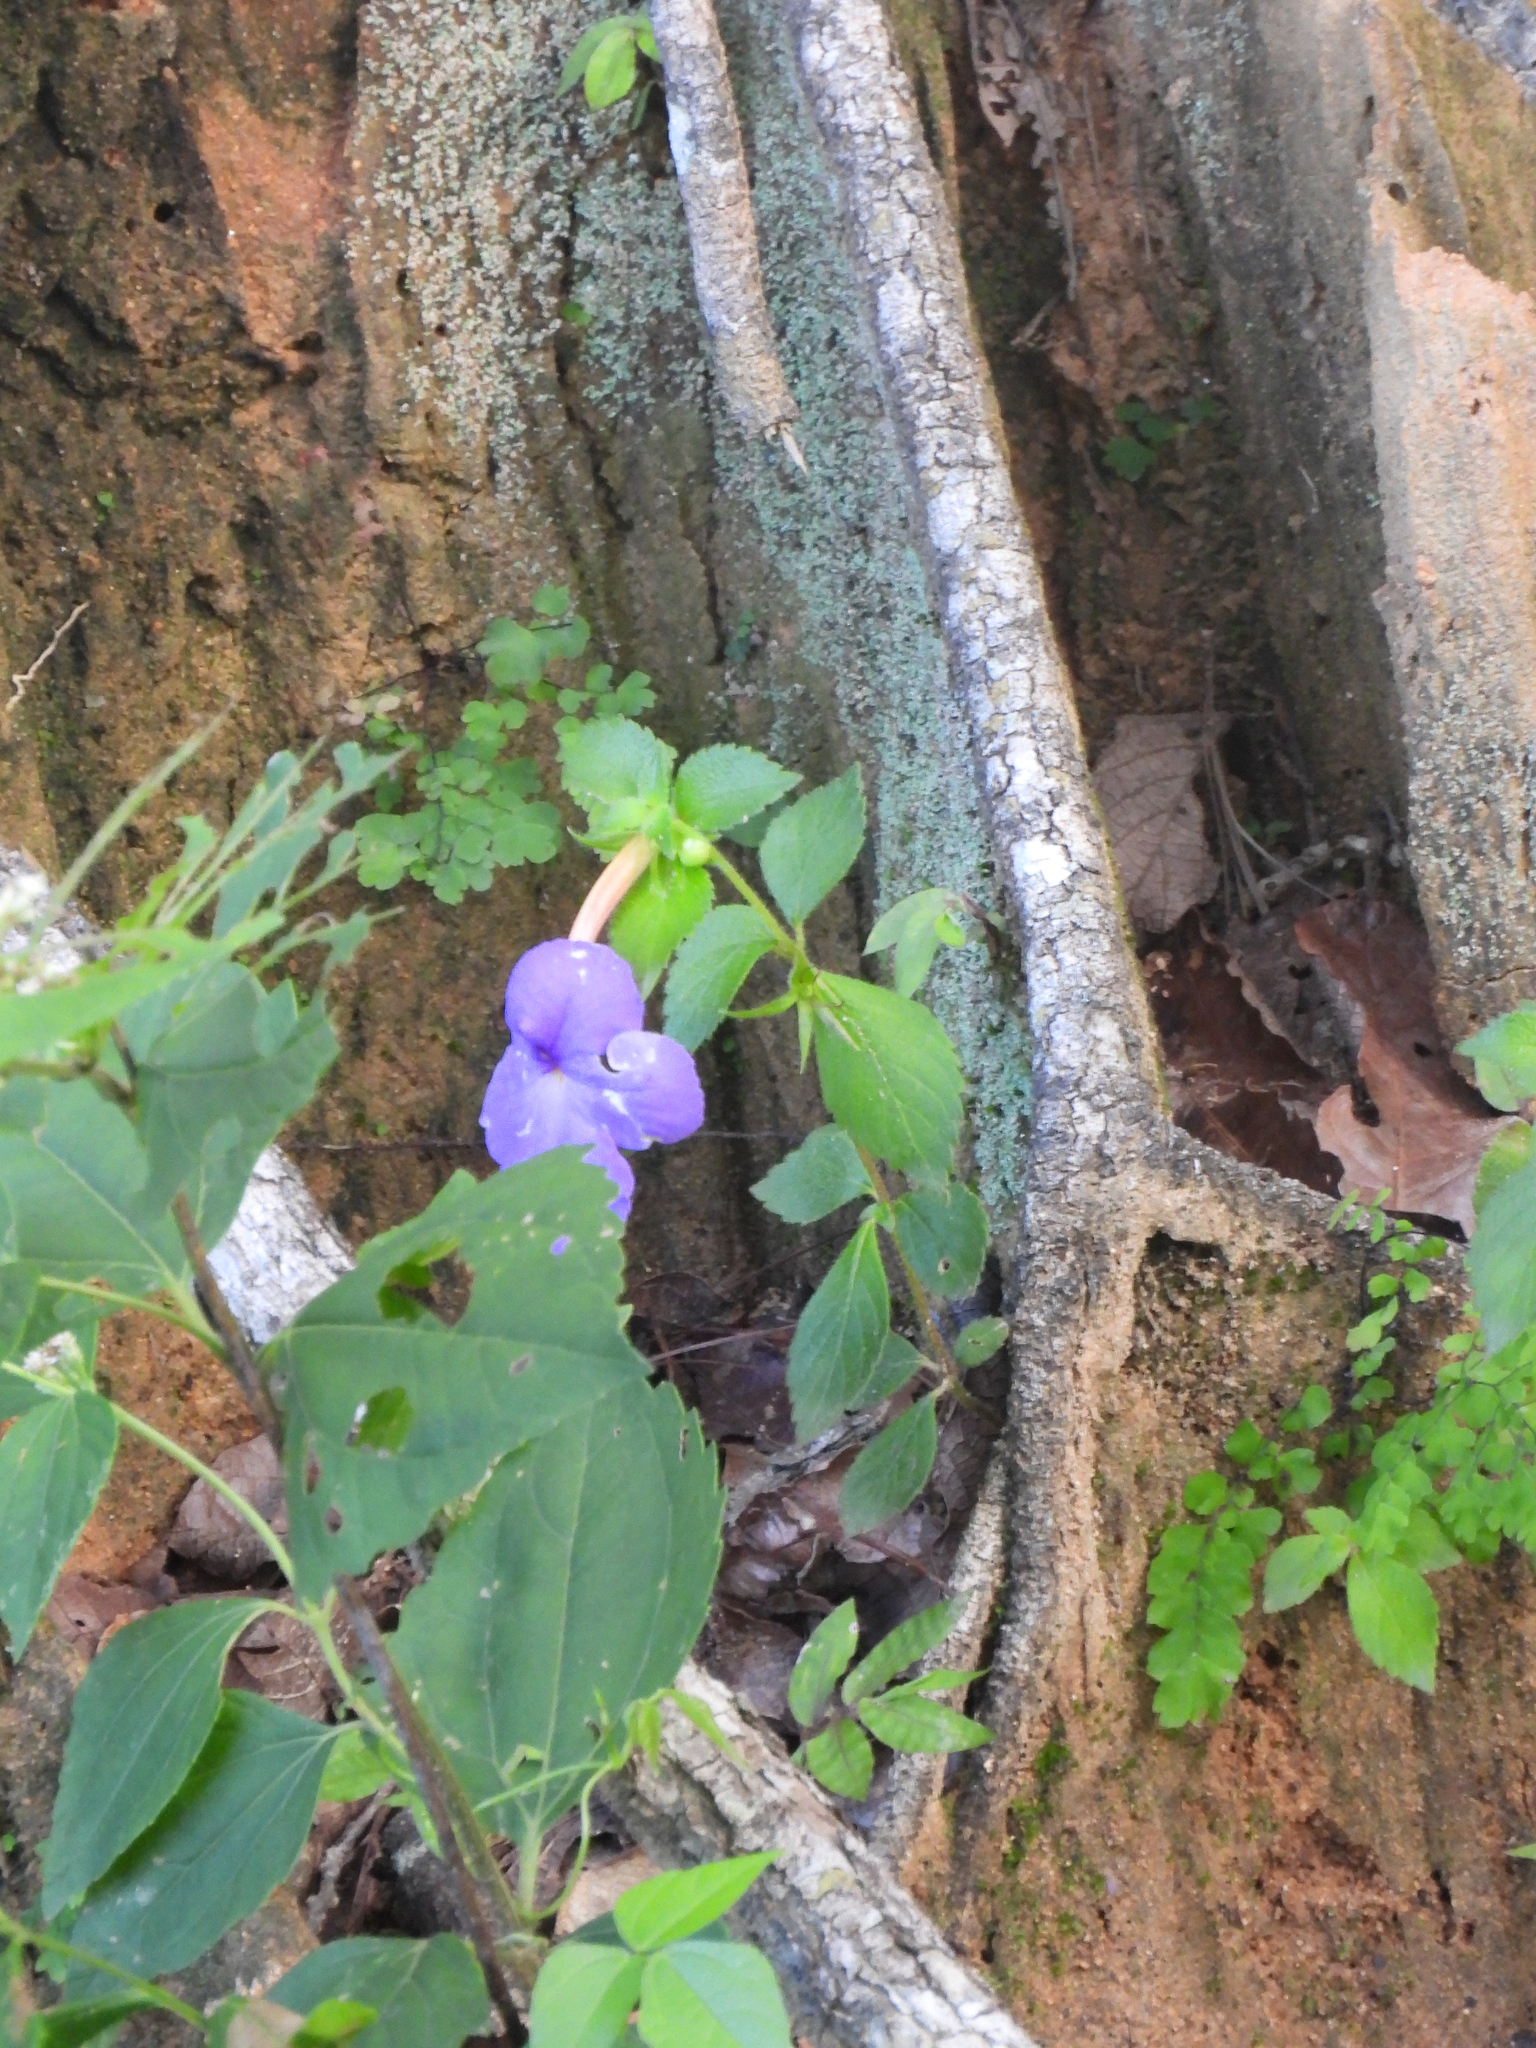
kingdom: Plantae
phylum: Tracheophyta
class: Magnoliopsida
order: Lamiales
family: Gesneriaceae
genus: Achimenes
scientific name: Achimenes longiflora
